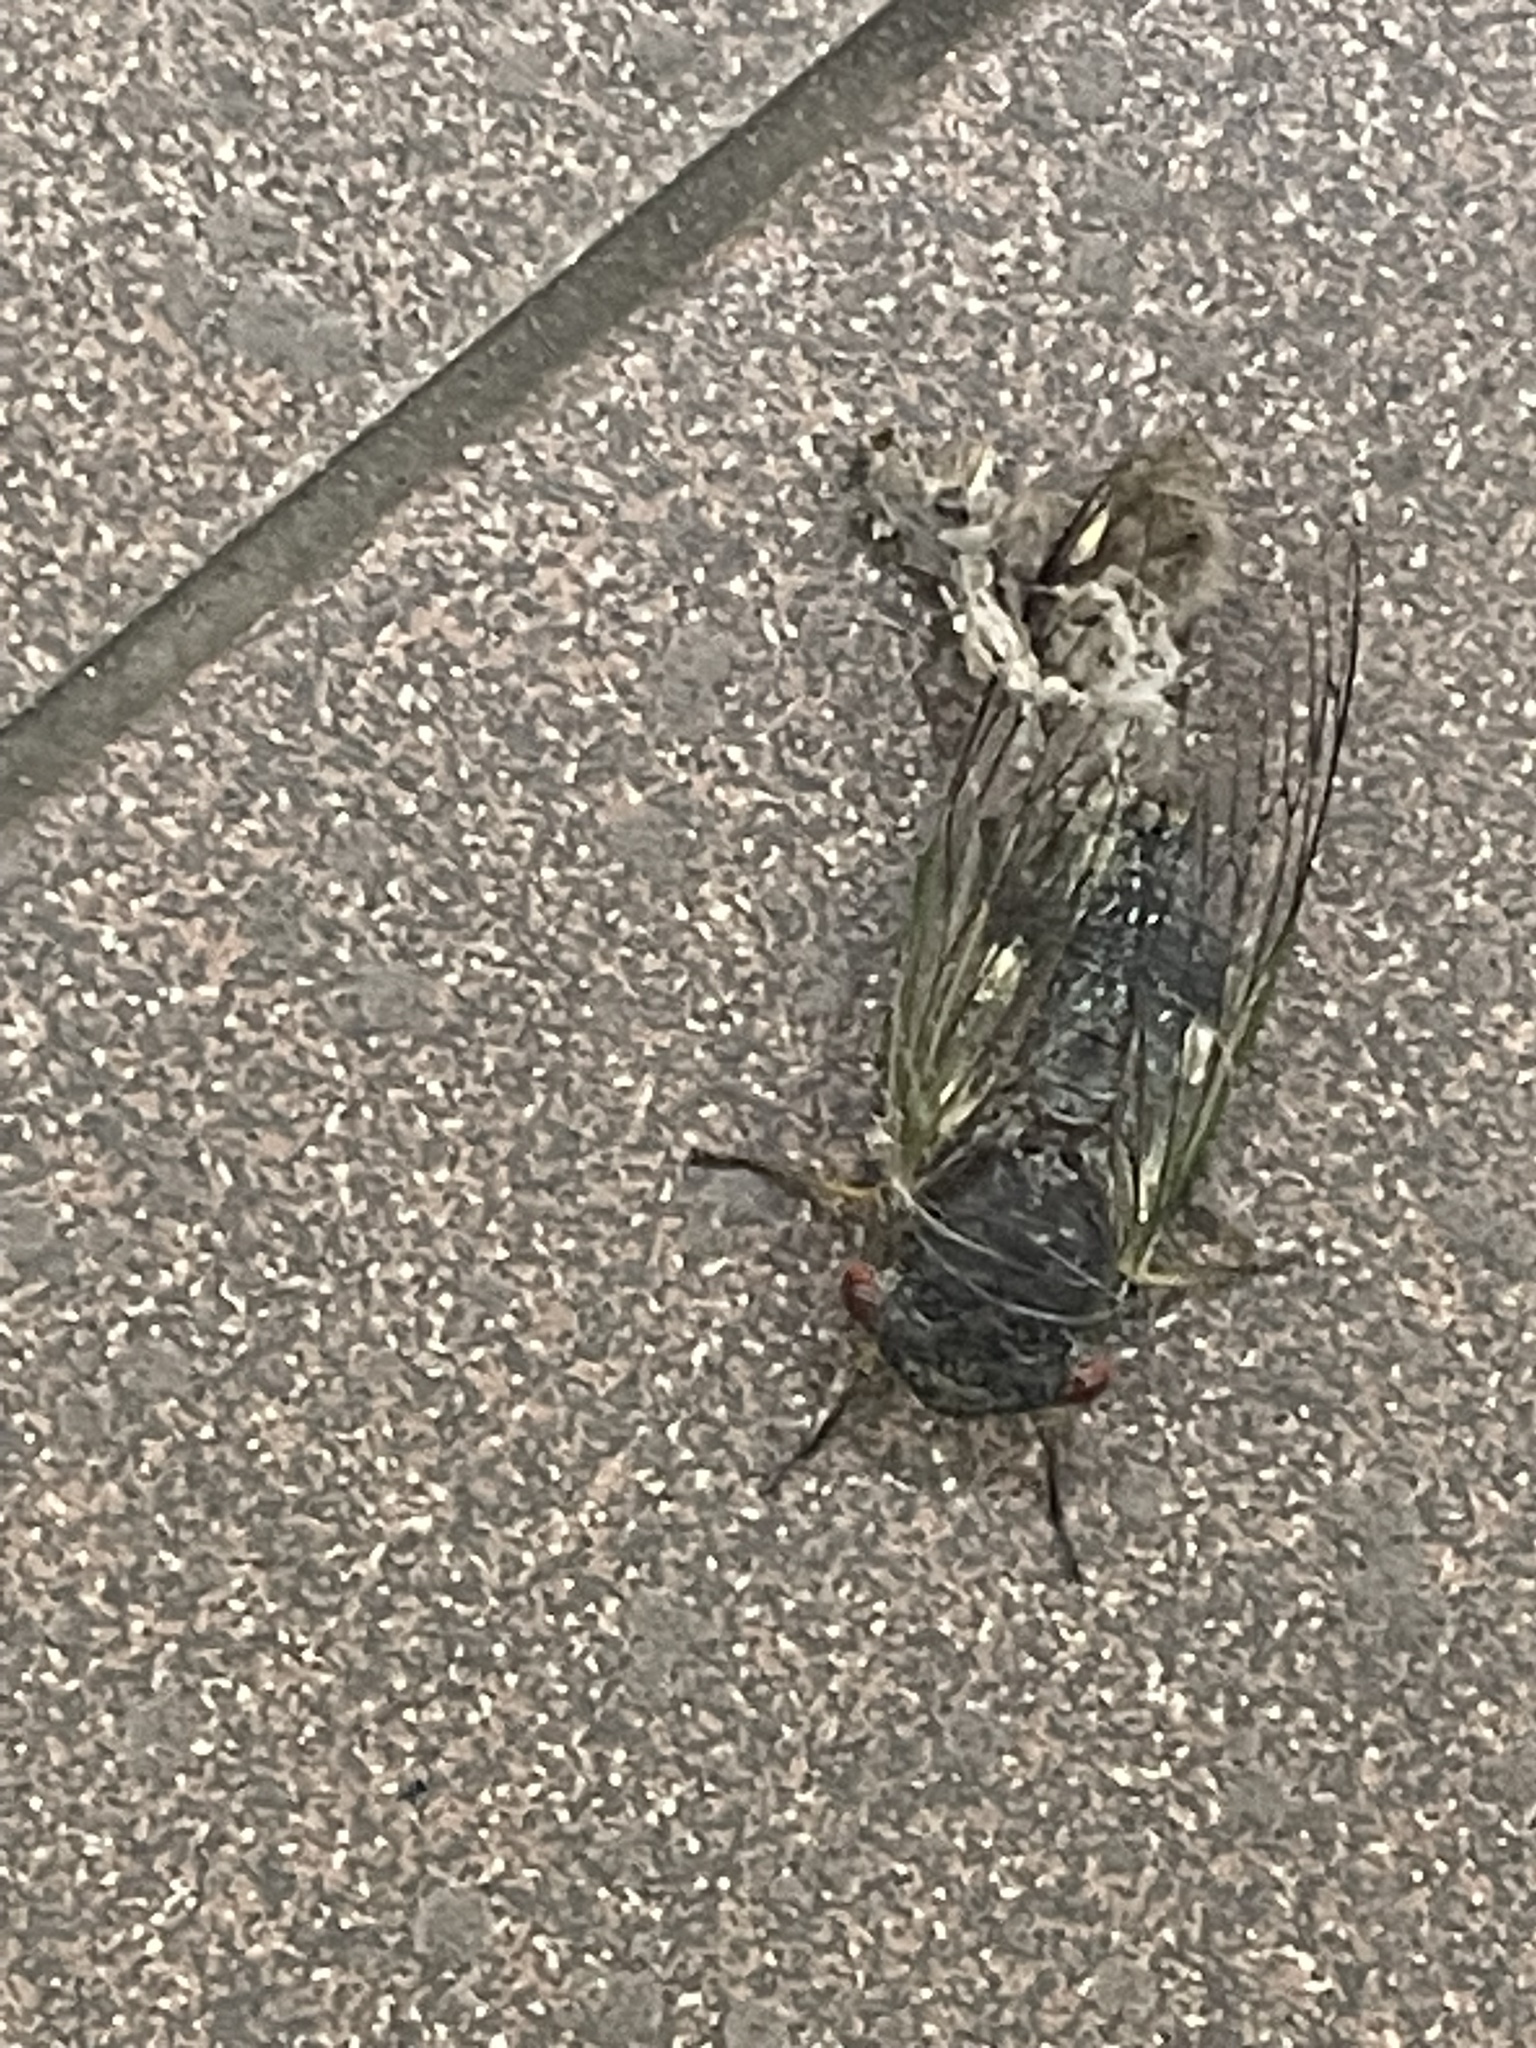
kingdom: Animalia
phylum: Arthropoda
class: Insecta
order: Hemiptera
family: Cicadidae
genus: Psaltoda
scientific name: Psaltoda claripennis
